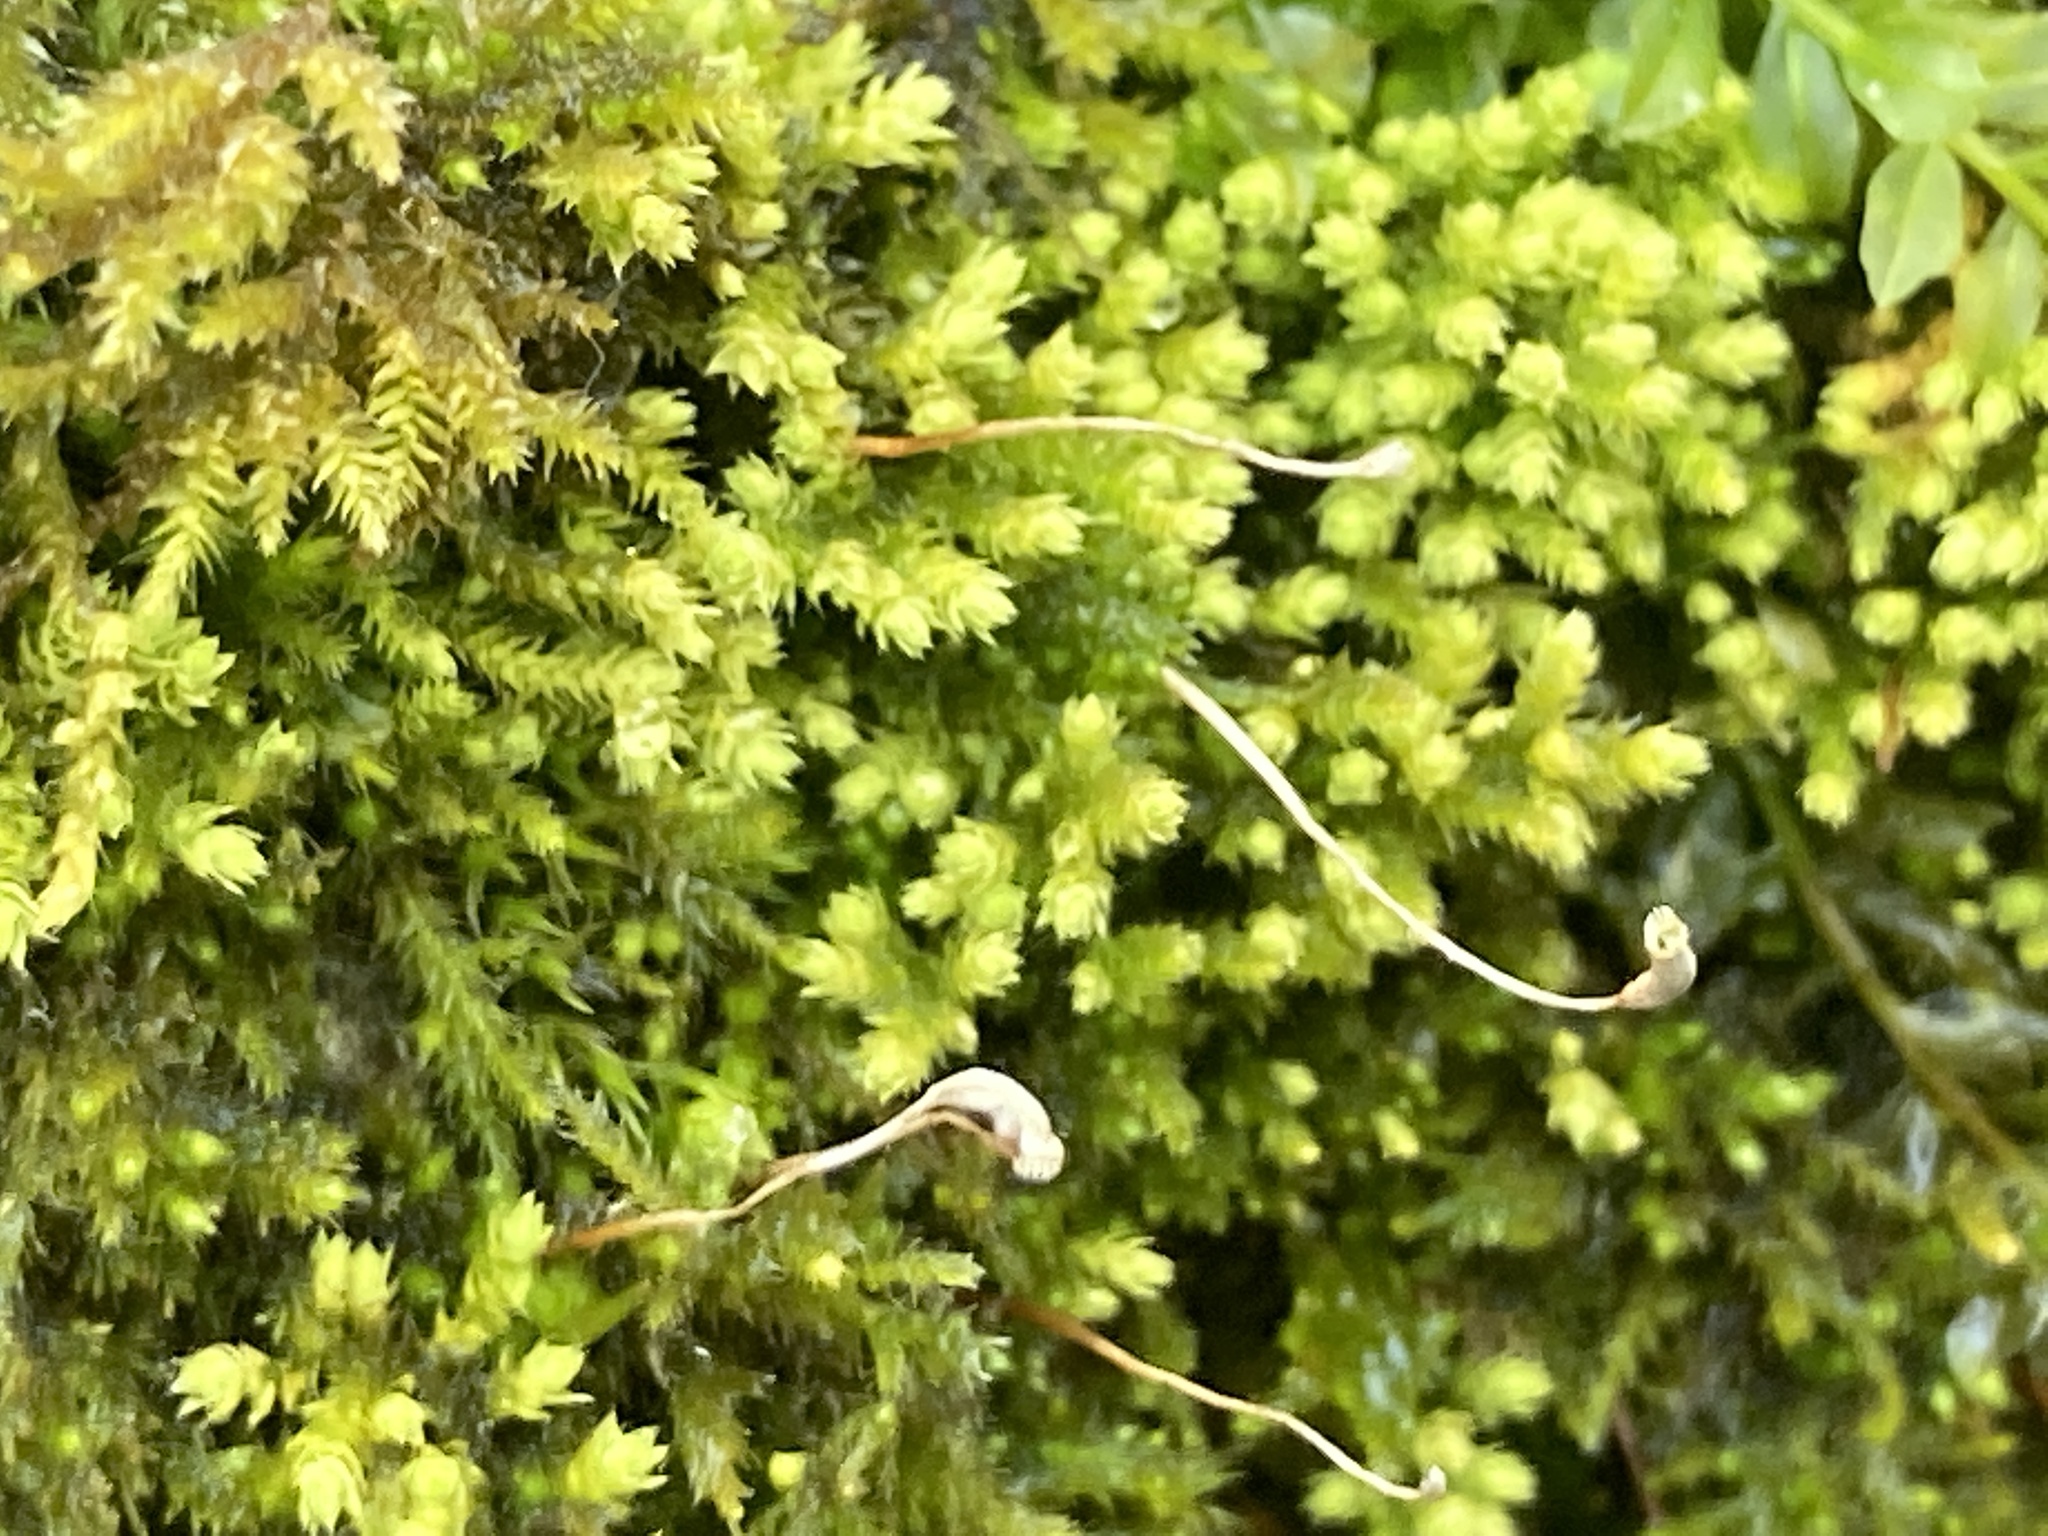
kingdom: Plantae
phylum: Bryophyta
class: Bryopsida
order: Hypnales
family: Neckeraceae
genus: Pseudanomodon
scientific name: Pseudanomodon attenuatus
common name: Tree-skirt moss
